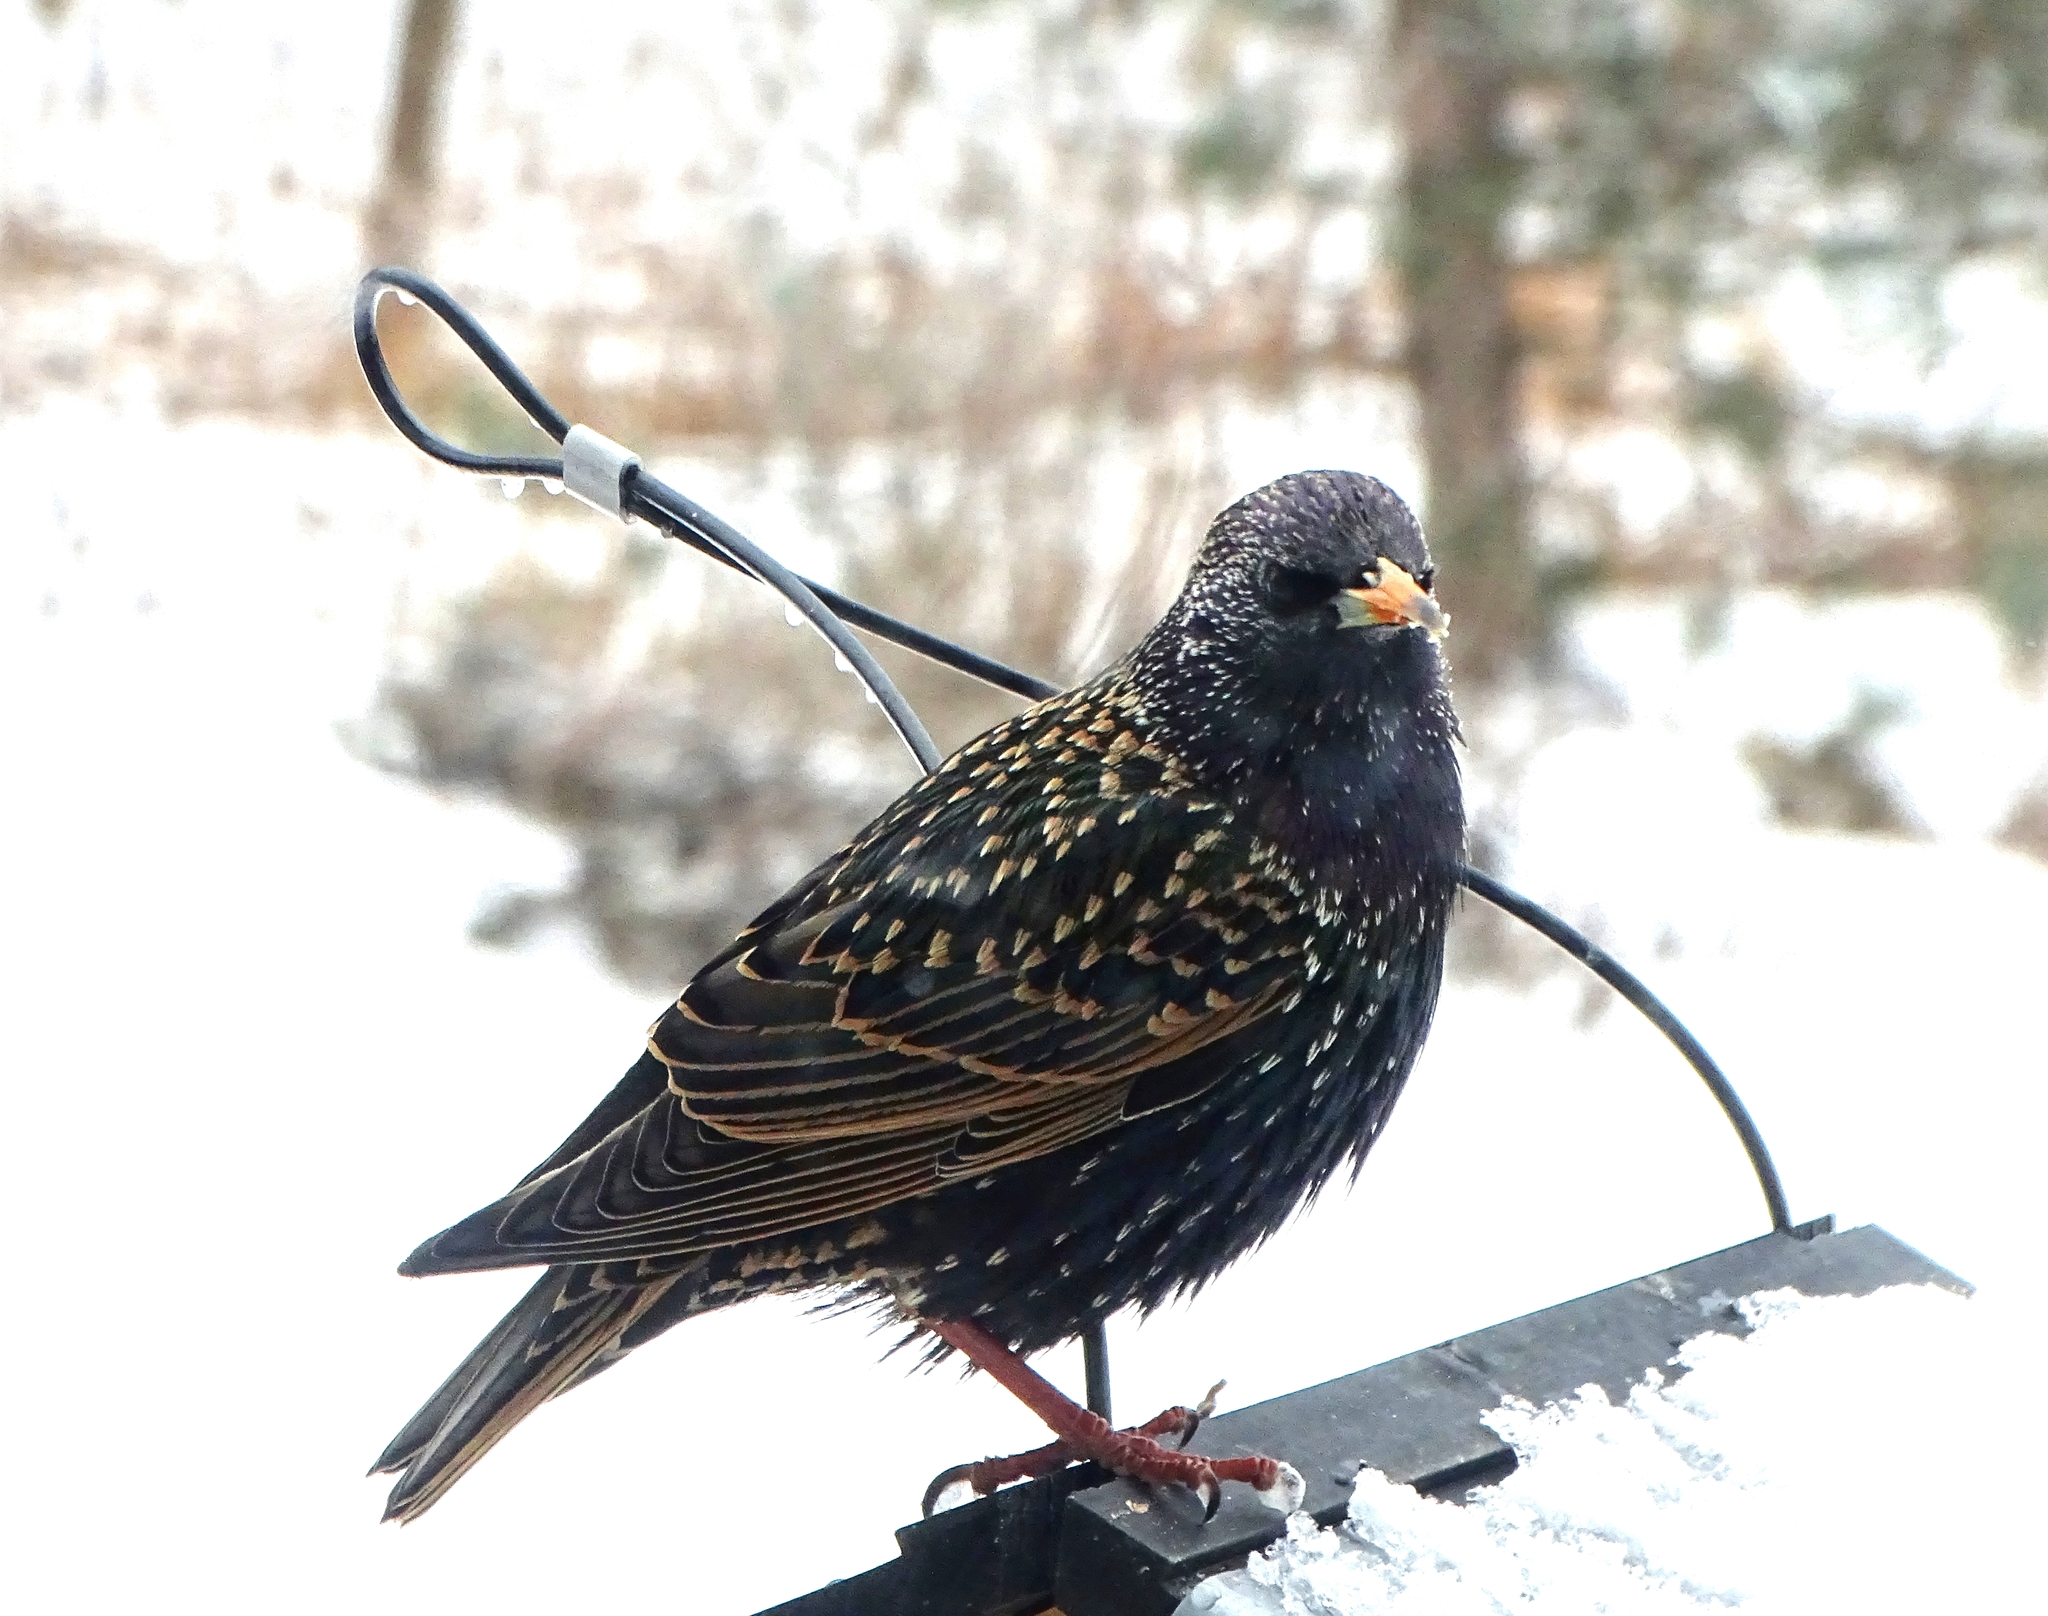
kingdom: Animalia
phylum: Chordata
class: Aves
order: Passeriformes
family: Sturnidae
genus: Sturnus
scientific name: Sturnus vulgaris
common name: Common starling
